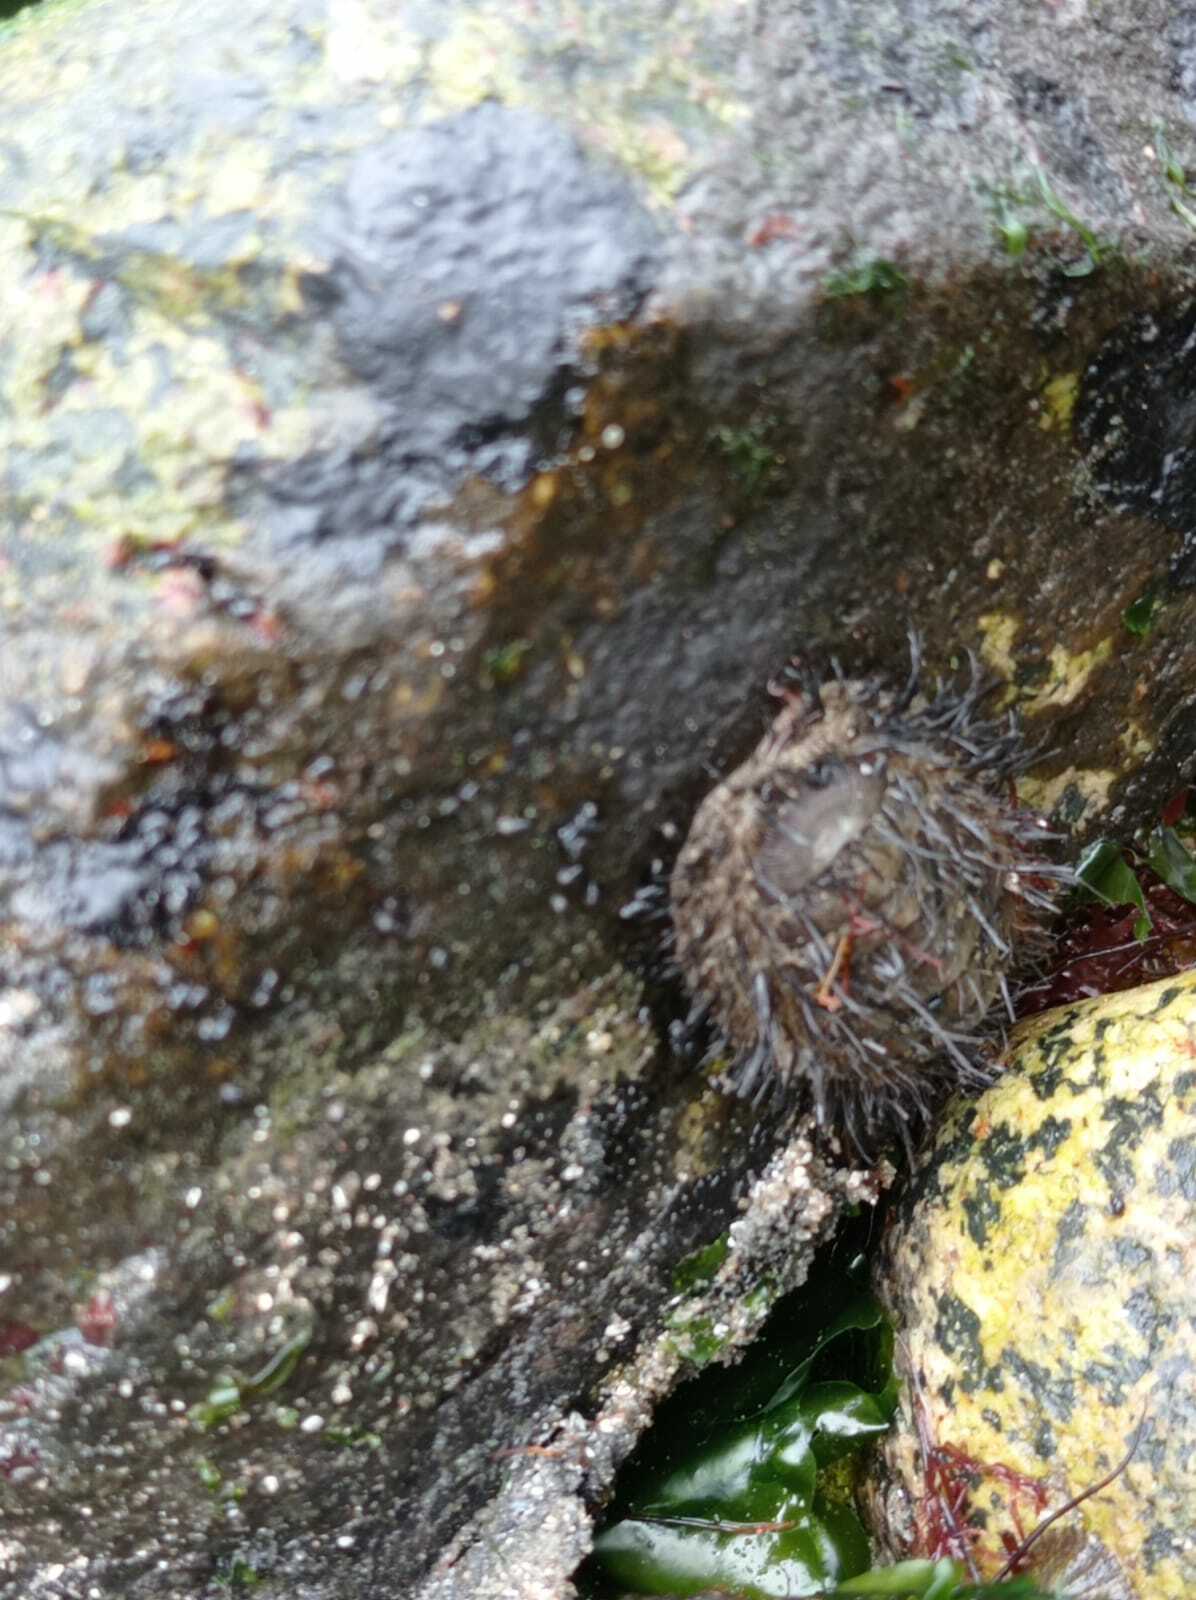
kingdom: Animalia
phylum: Mollusca
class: Polyplacophora
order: Chitonida
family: Chaetopleuridae
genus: Chaetopleura
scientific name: Chaetopleura peruviana
